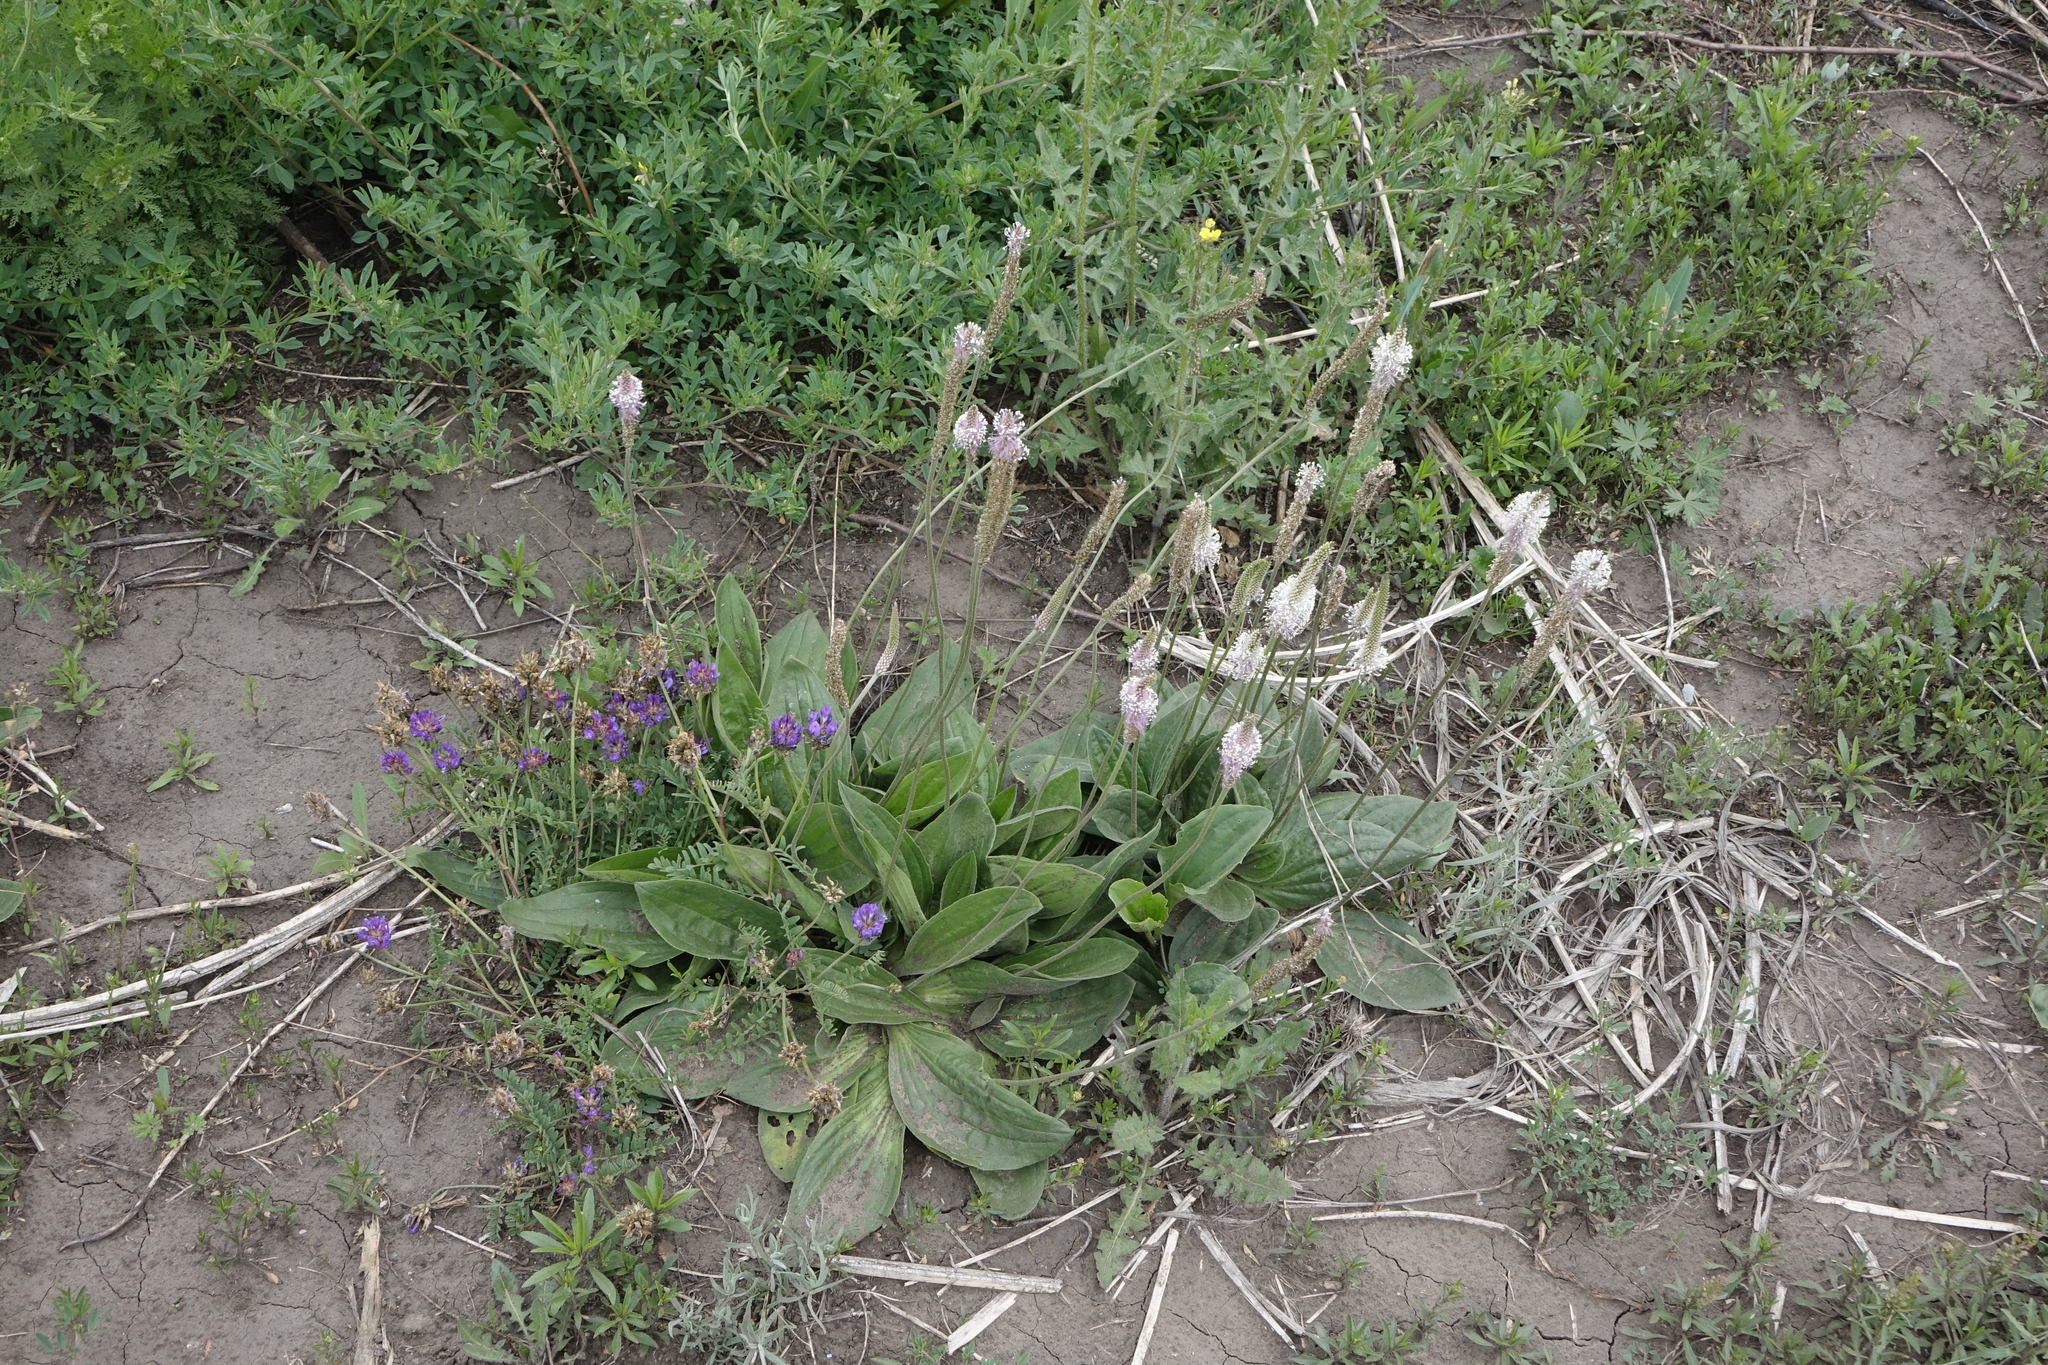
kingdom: Plantae
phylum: Tracheophyta
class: Magnoliopsida
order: Lamiales
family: Plantaginaceae
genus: Plantago
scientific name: Plantago media
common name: Hoary plantain
